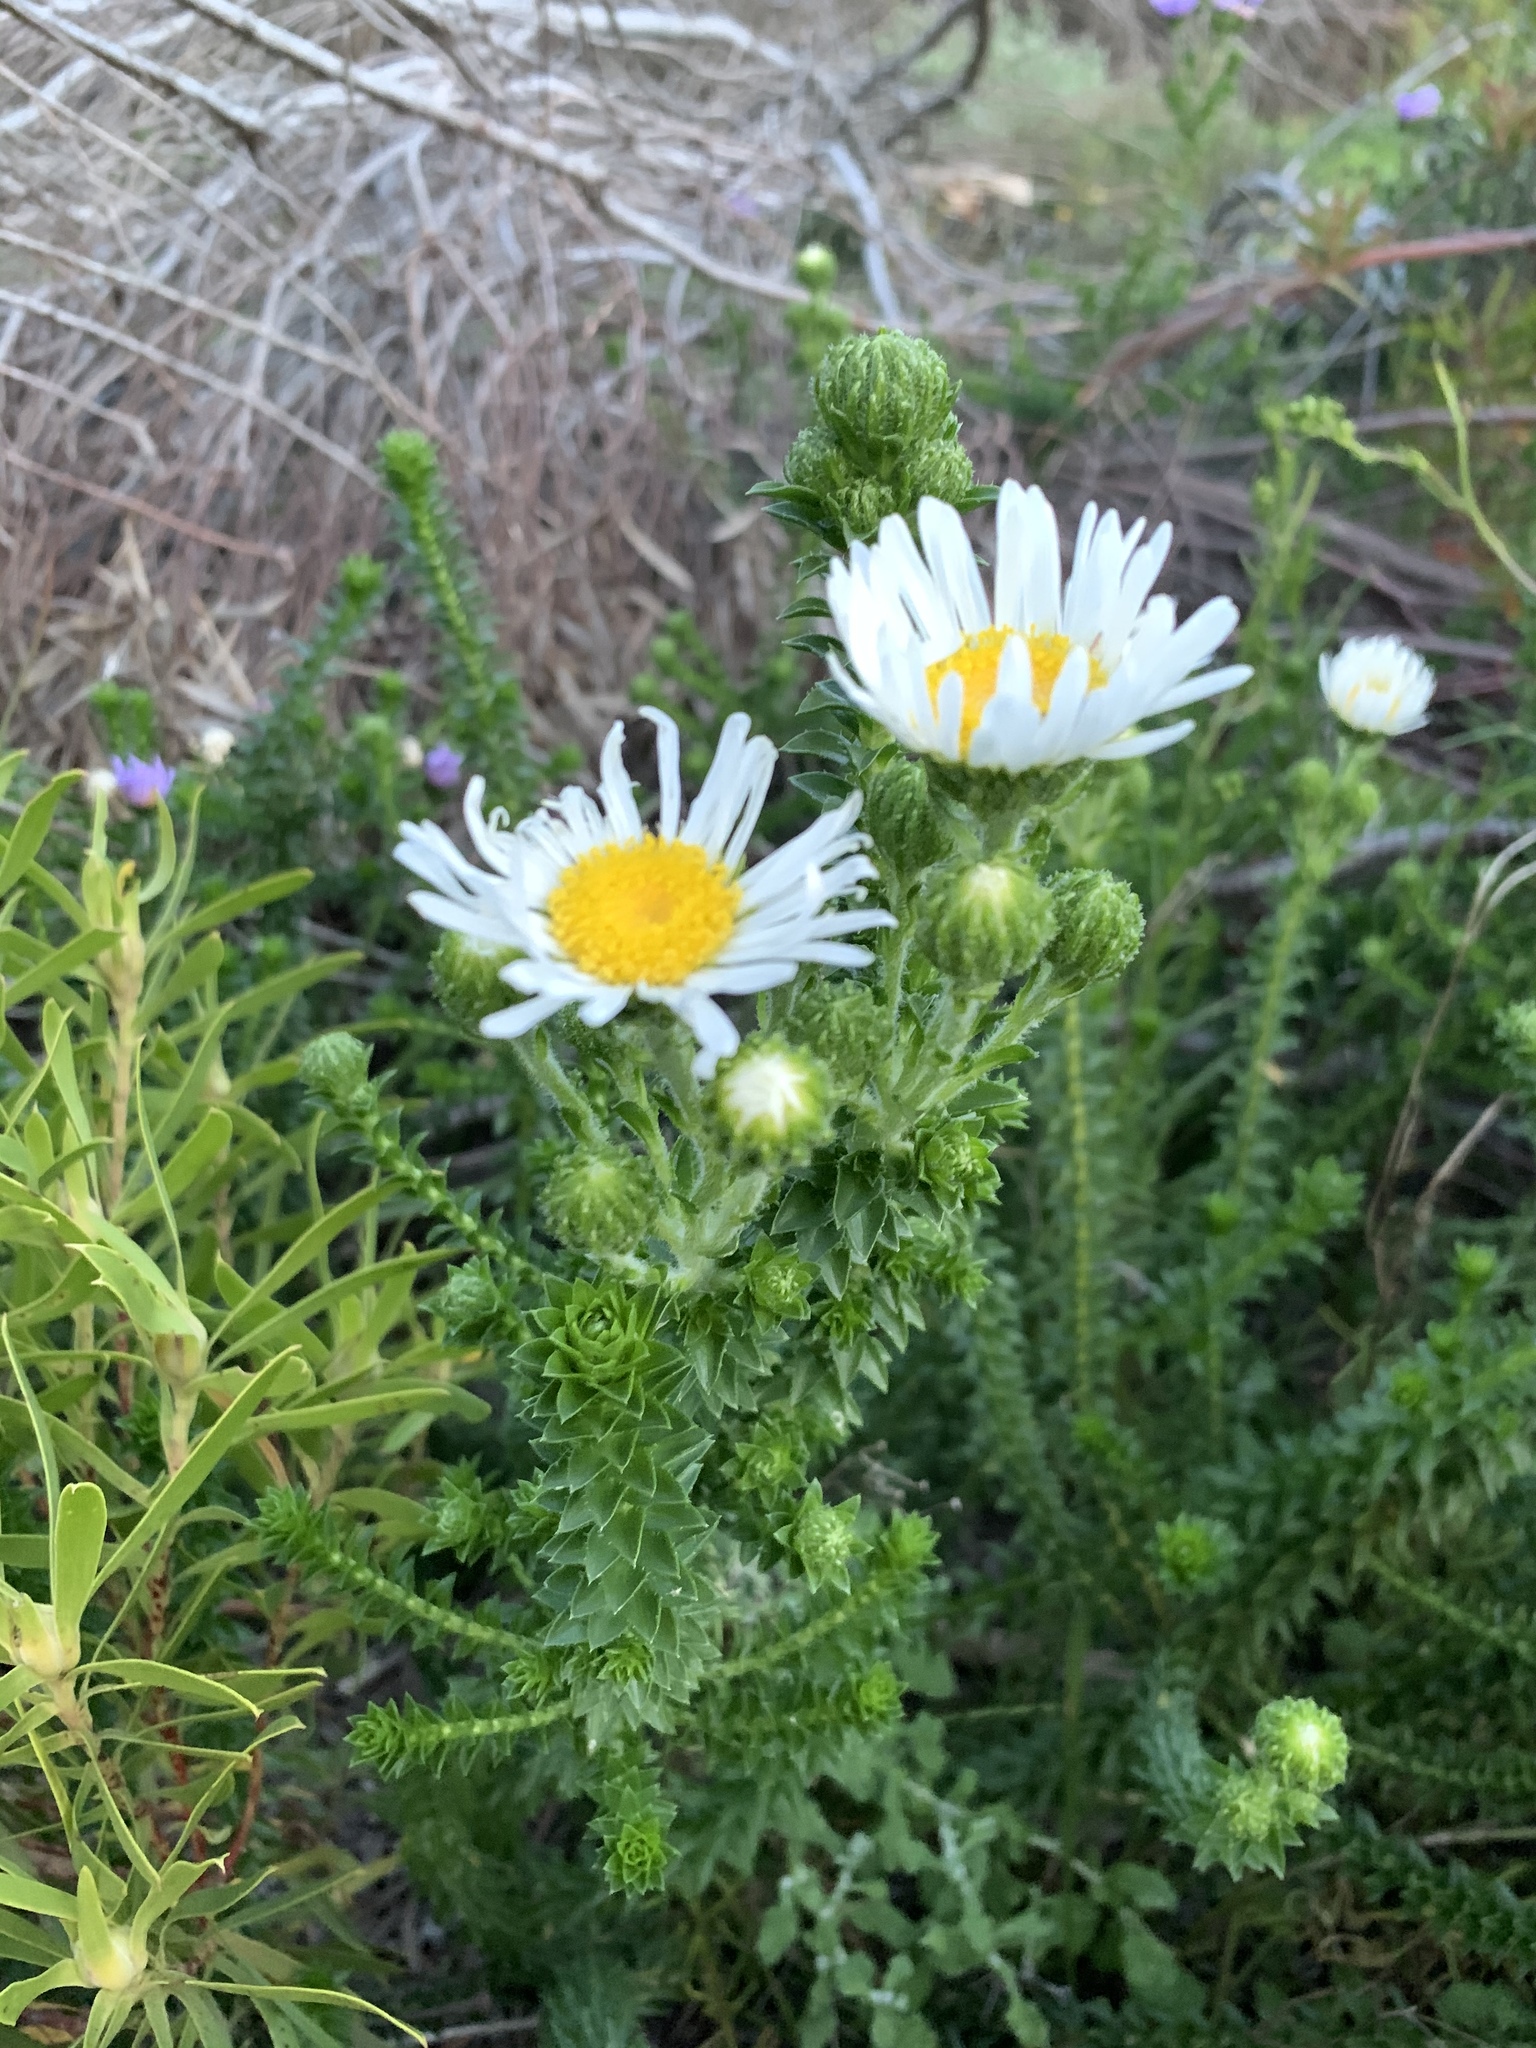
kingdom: Plantae
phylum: Tracheophyta
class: Magnoliopsida
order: Asterales
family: Asteraceae
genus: Felicia
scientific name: Felicia echinata
